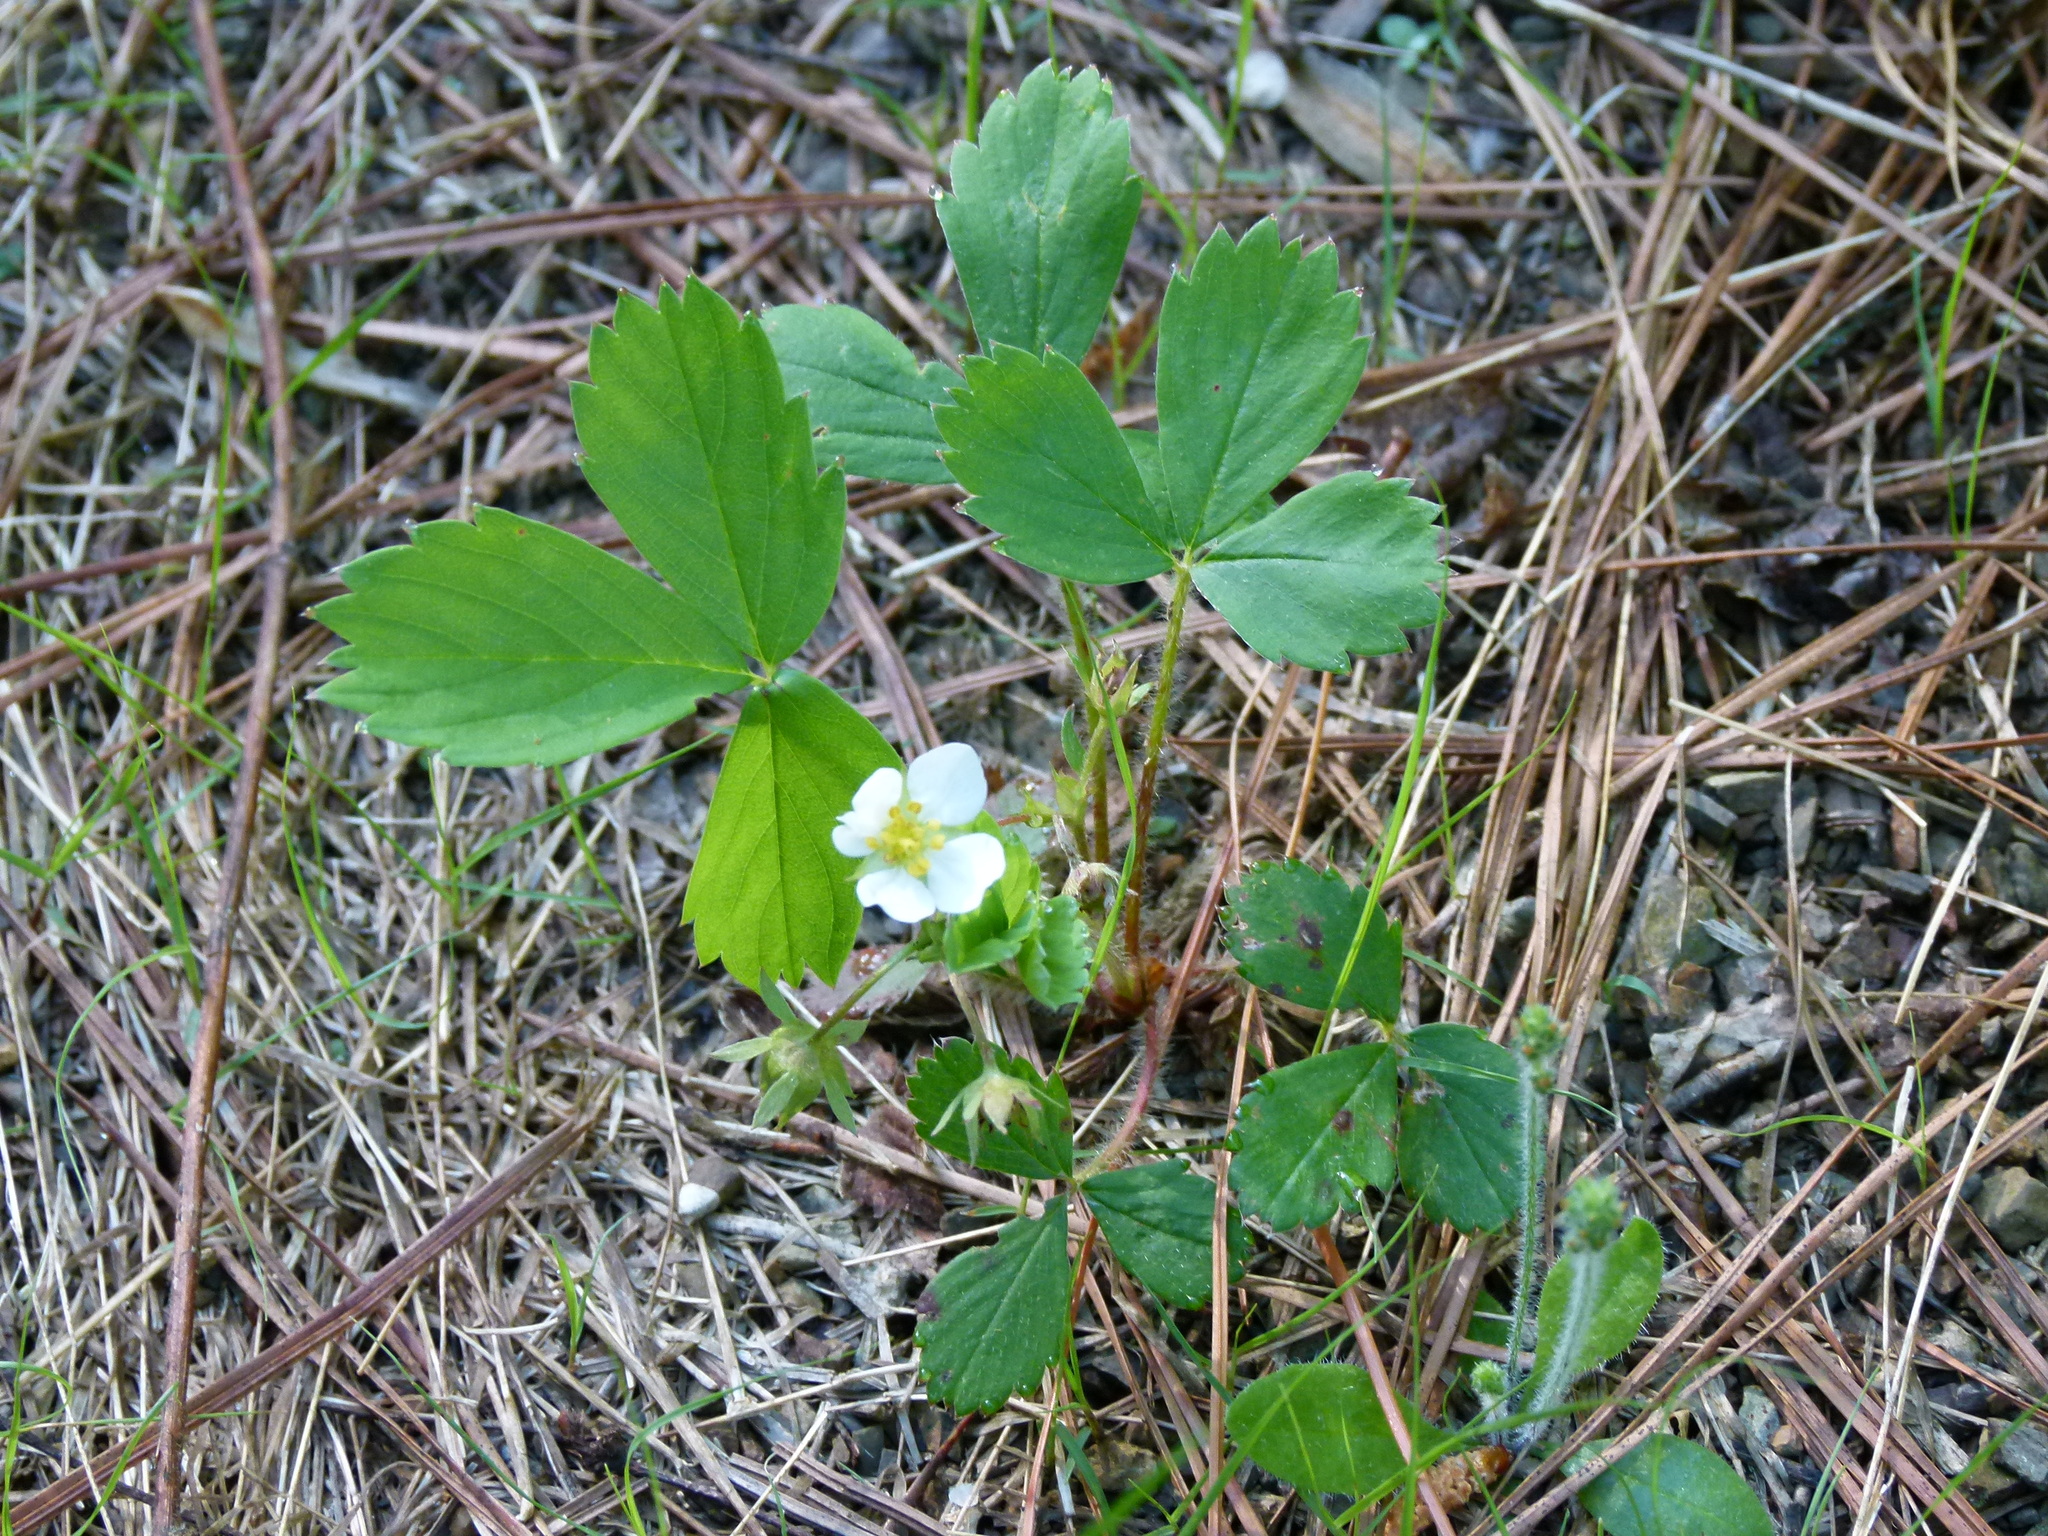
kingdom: Plantae
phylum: Tracheophyta
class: Magnoliopsida
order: Rosales
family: Rosaceae
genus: Fragaria
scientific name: Fragaria virginiana
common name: Thickleaved wild strawberry
